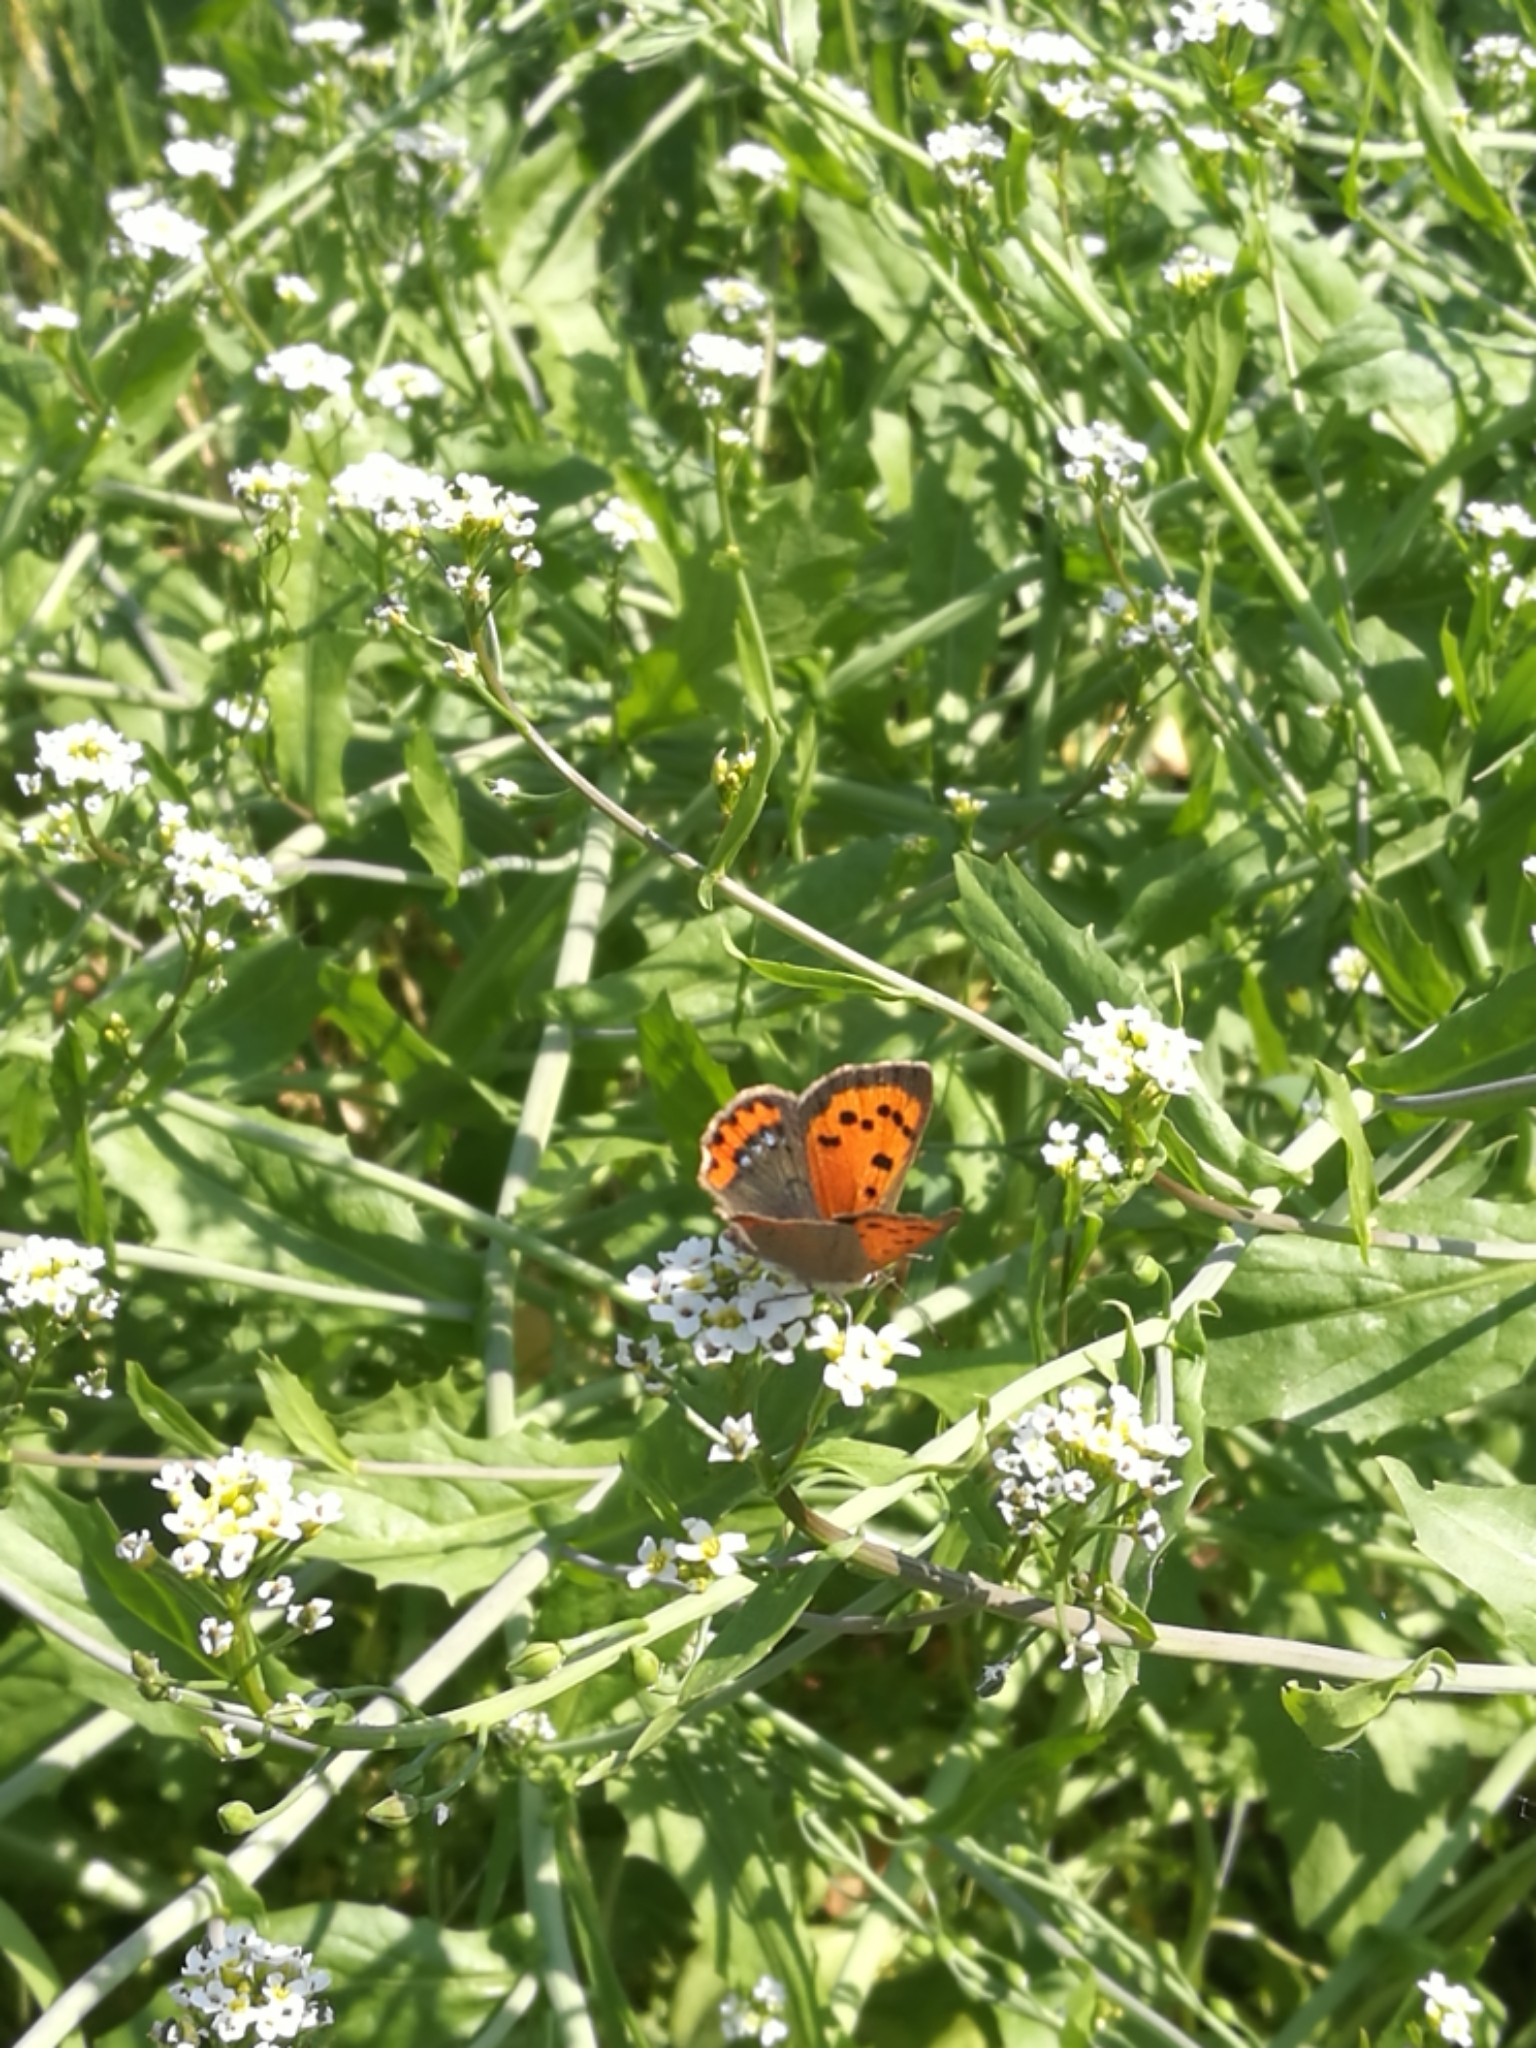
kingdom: Animalia
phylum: Arthropoda
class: Insecta
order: Lepidoptera
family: Lycaenidae
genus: Lycaena
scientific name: Lycaena phlaeas
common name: Small copper
